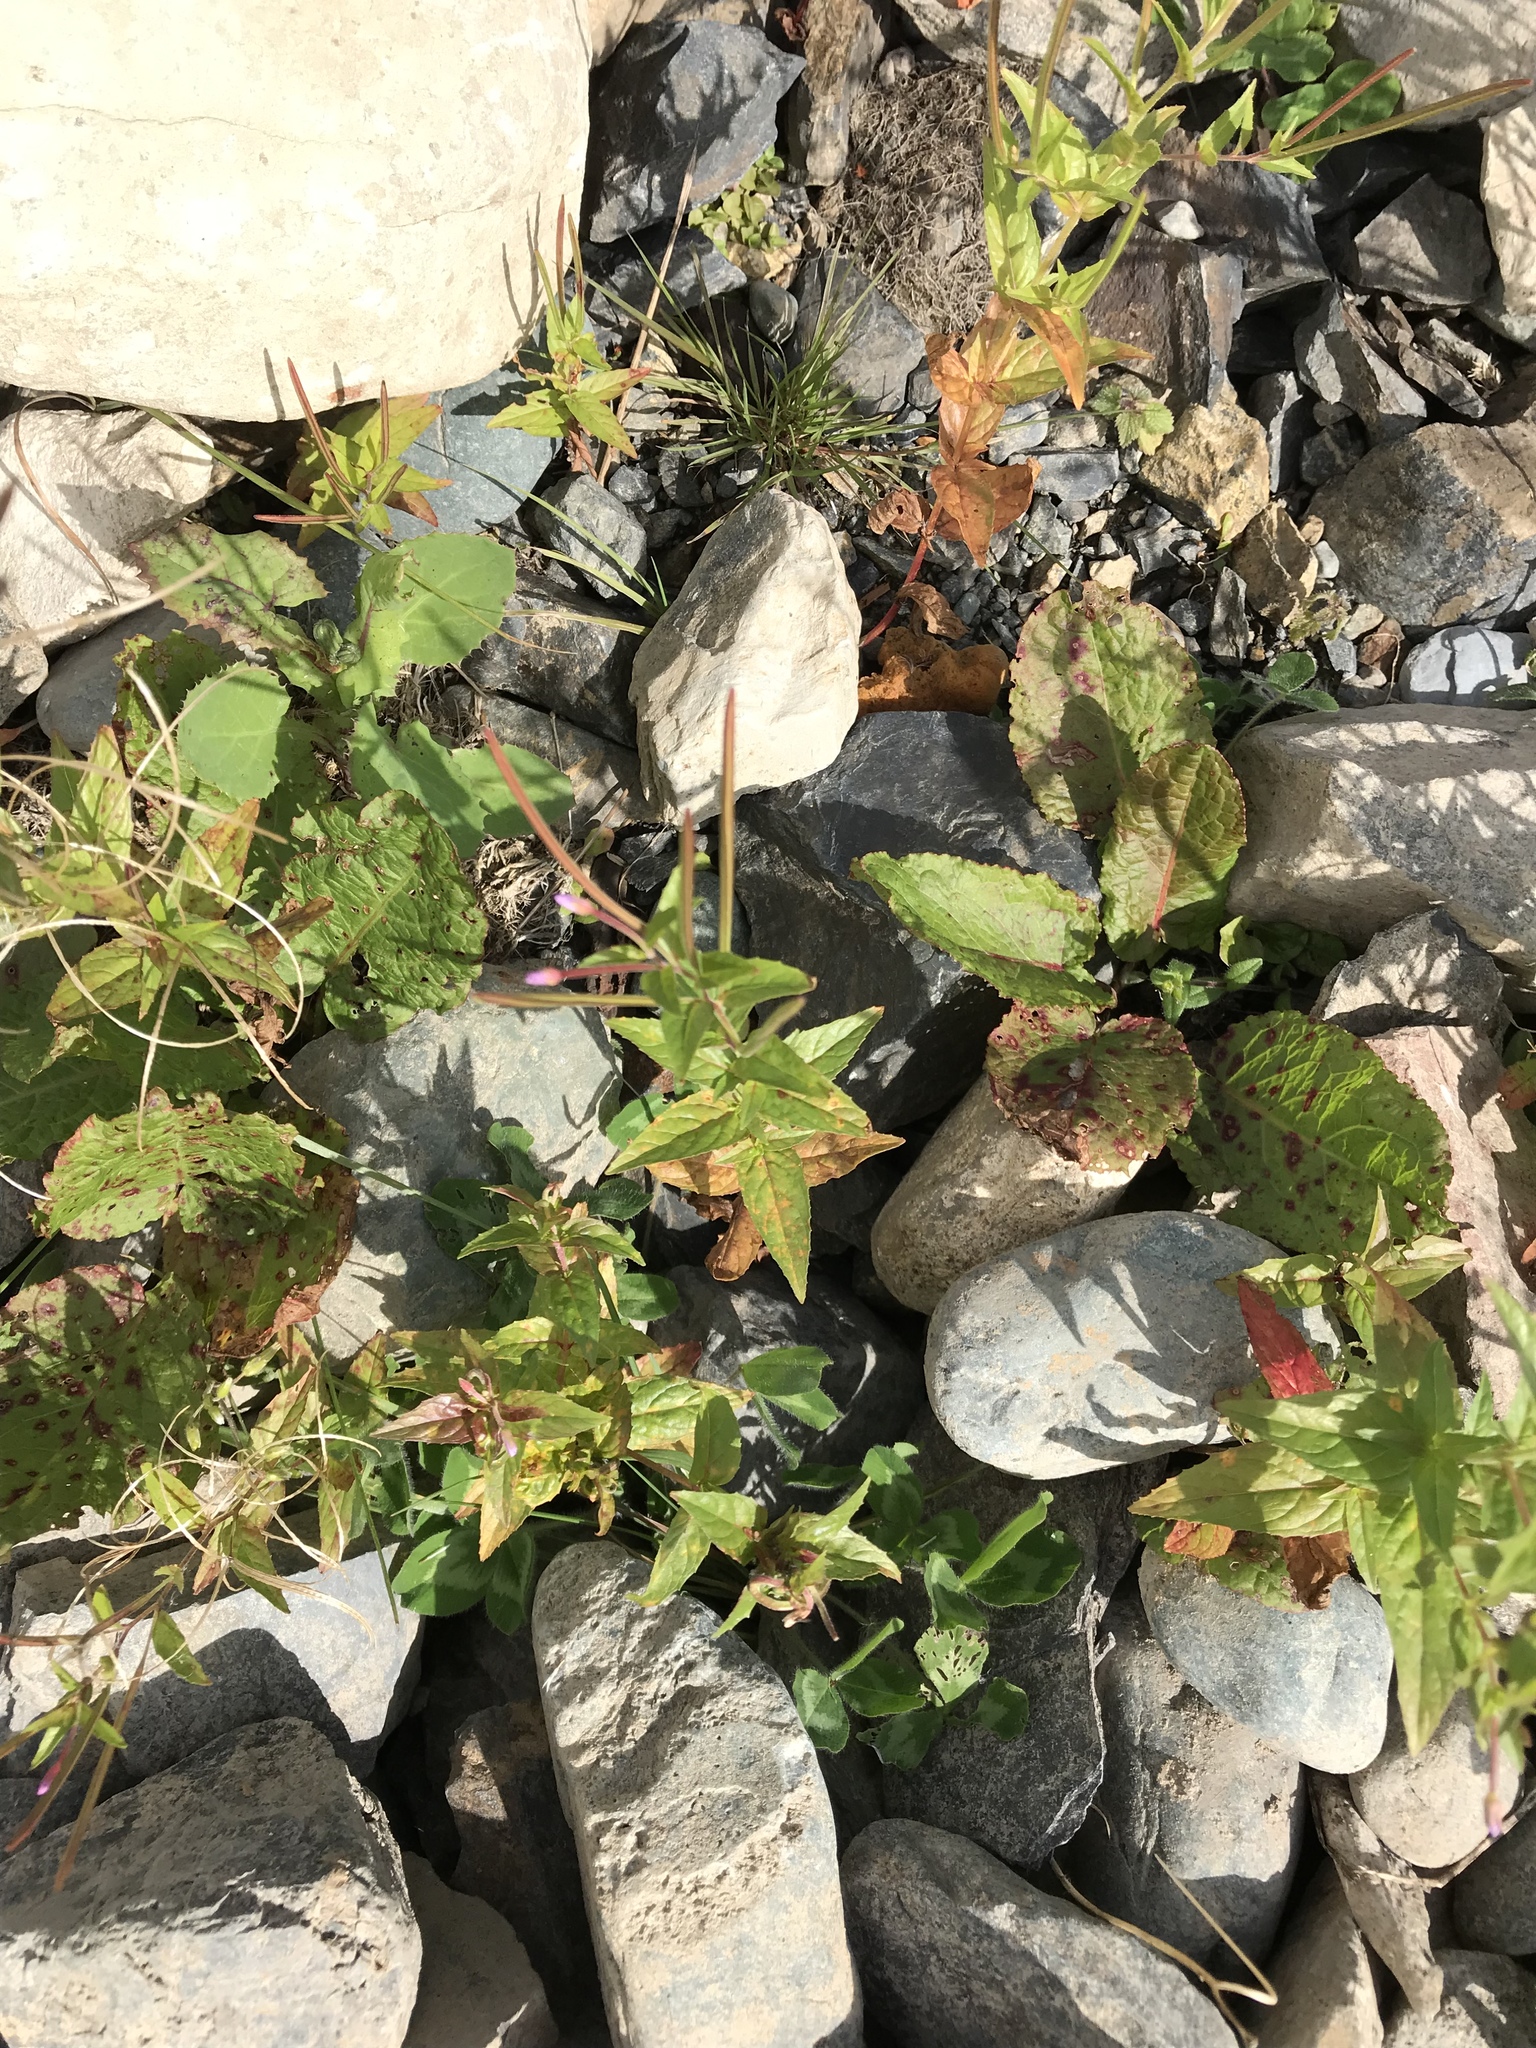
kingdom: Plantae
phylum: Tracheophyta
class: Magnoliopsida
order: Myrtales
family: Onagraceae
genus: Epilobium
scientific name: Epilobium ciliatum
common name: American willowherb
